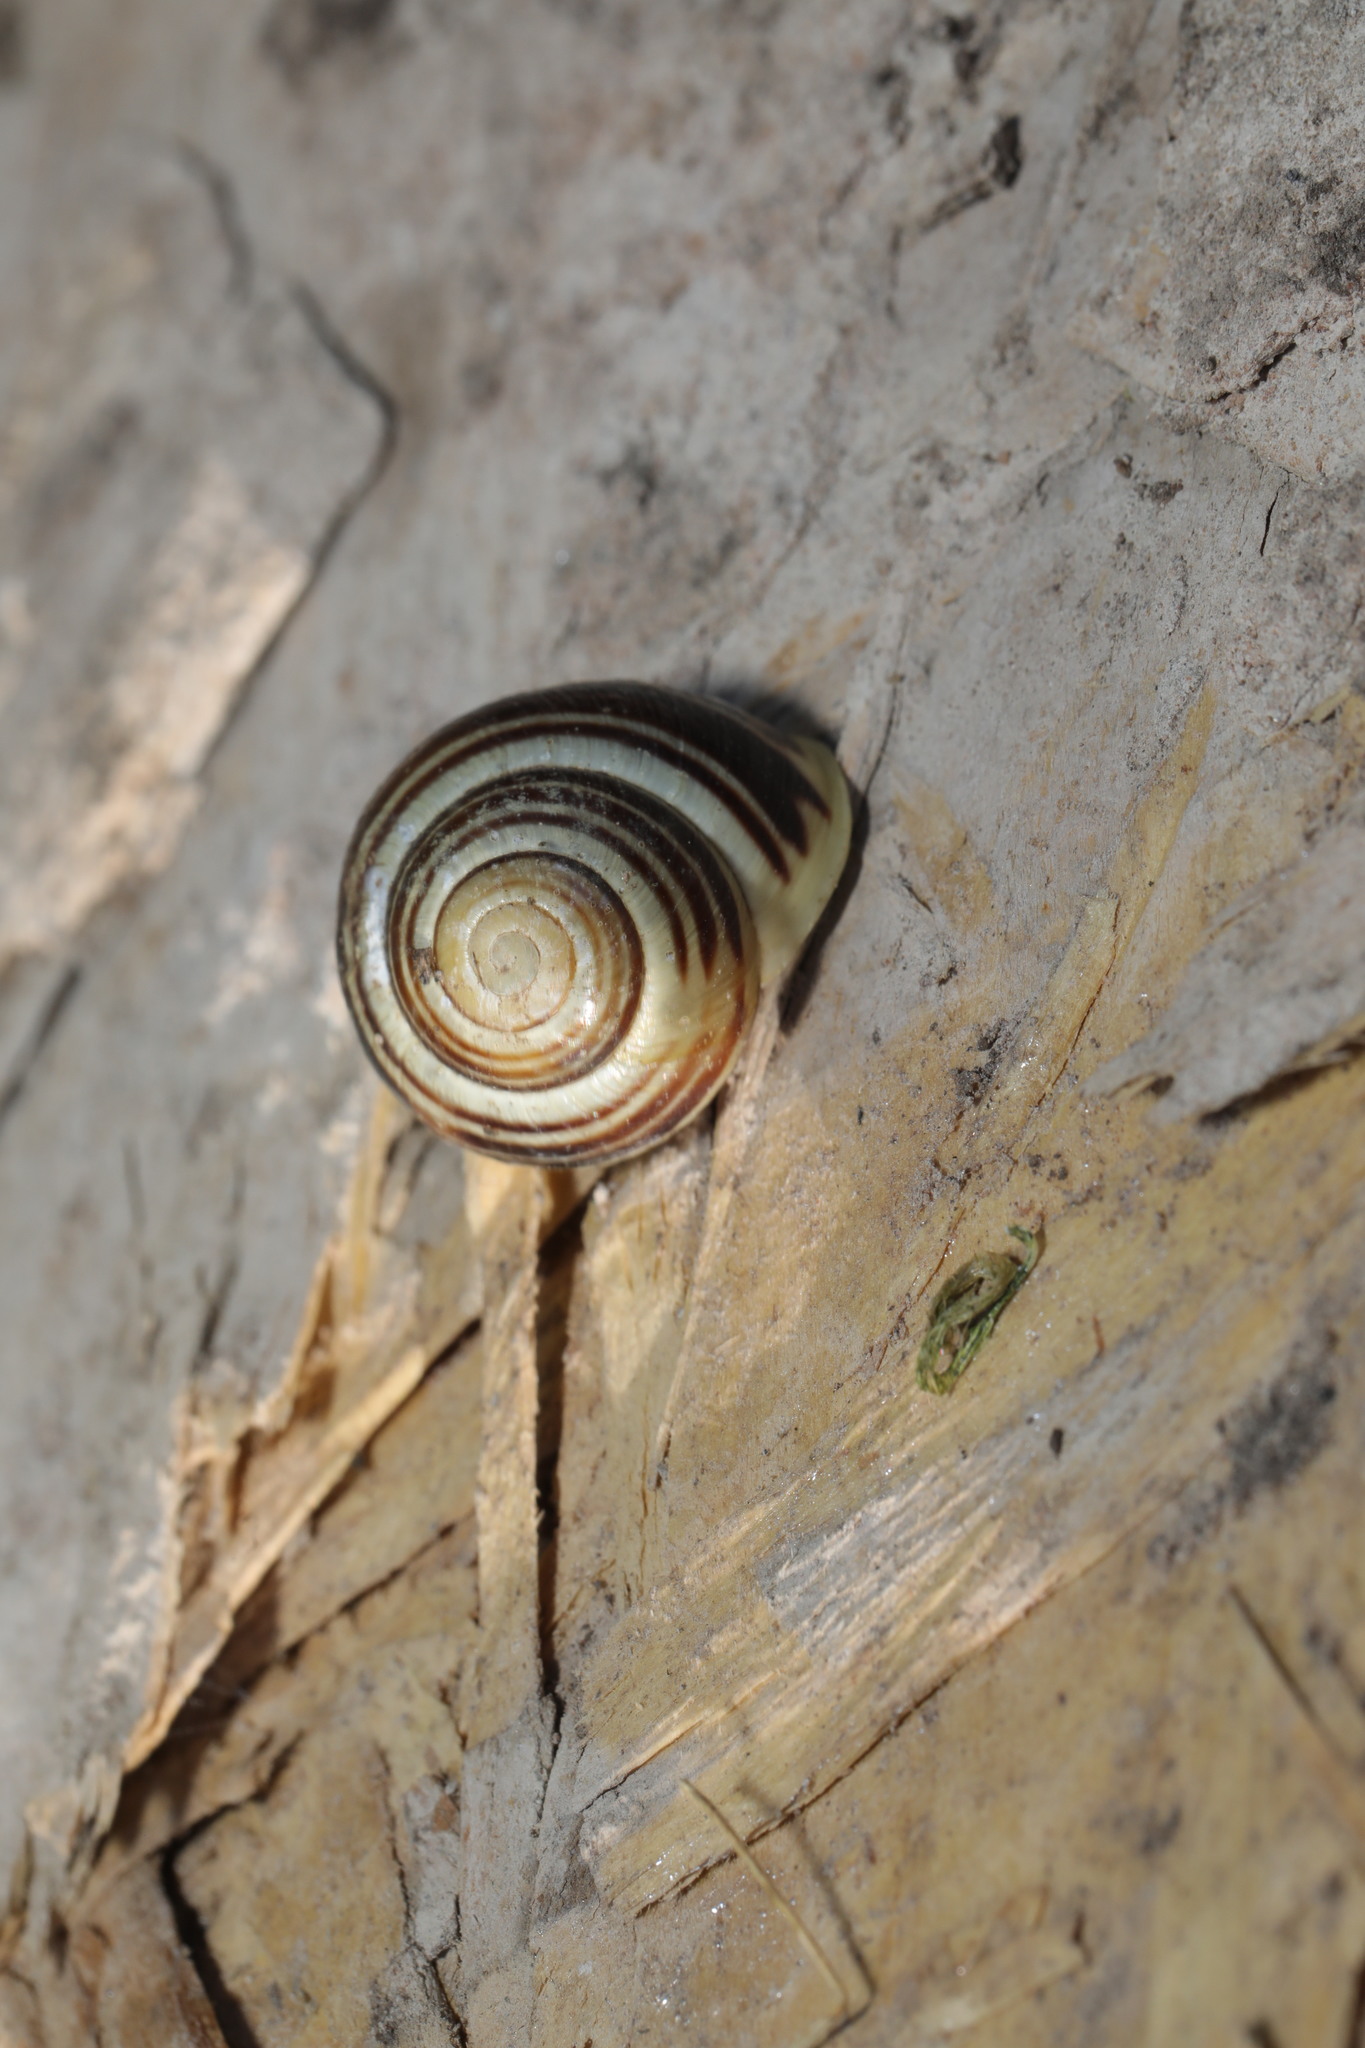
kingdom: Animalia
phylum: Mollusca
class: Gastropoda
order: Stylommatophora
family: Helicidae
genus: Cepaea
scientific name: Cepaea hortensis
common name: White-lip gardensnail
